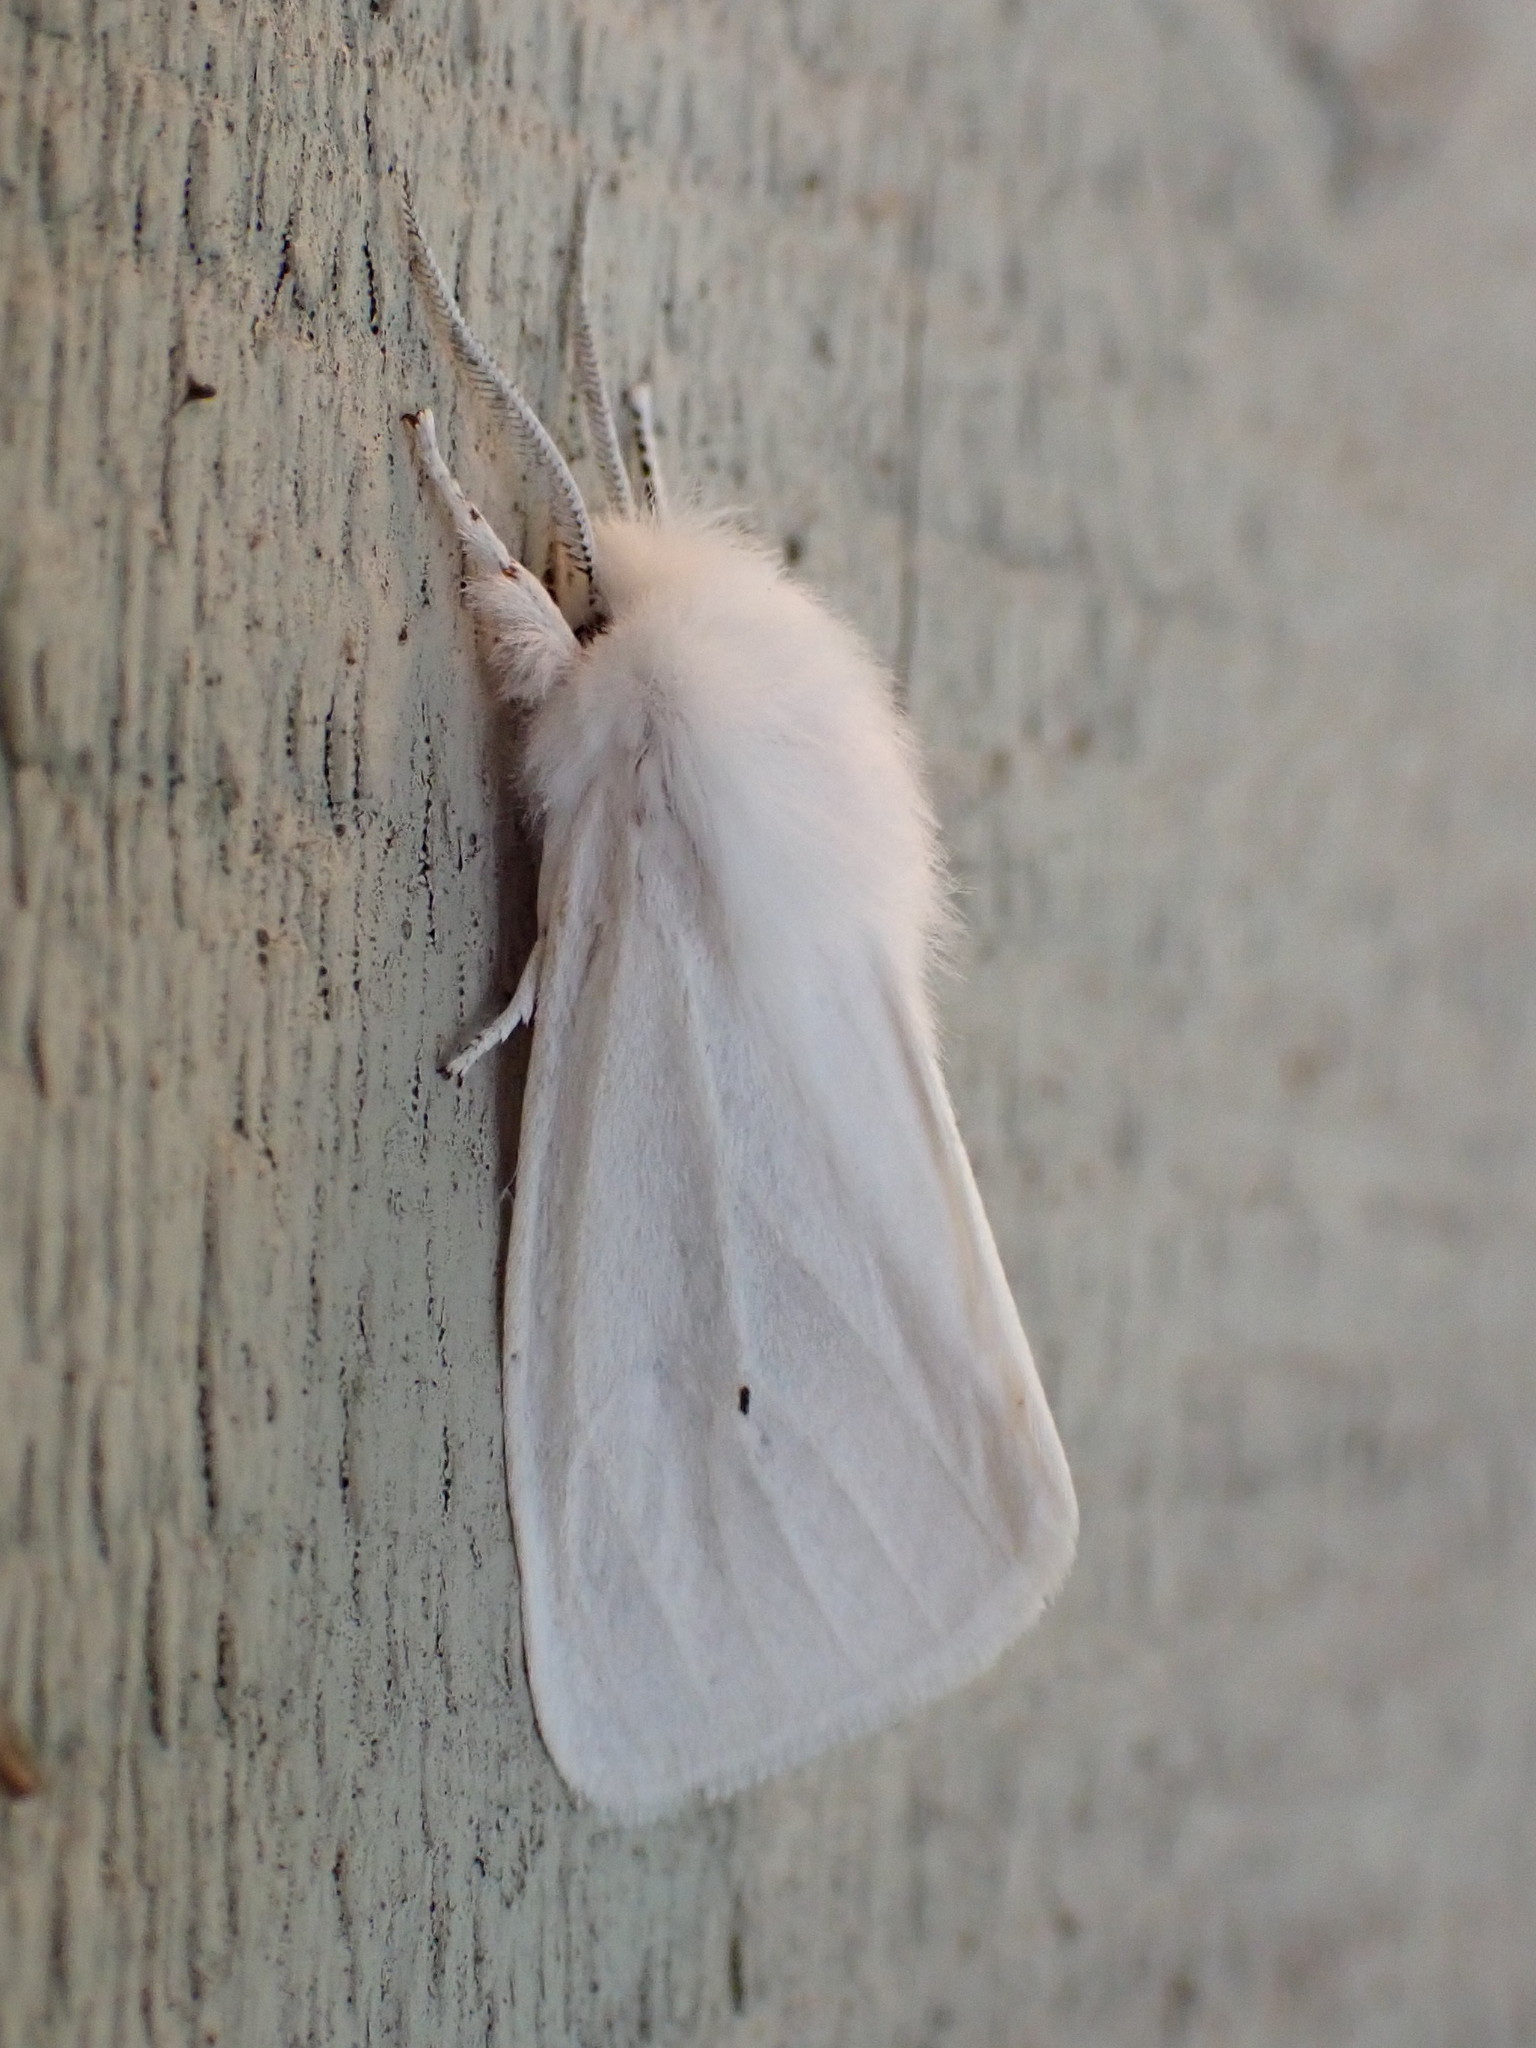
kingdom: Animalia
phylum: Arthropoda
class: Insecta
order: Lepidoptera
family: Erebidae
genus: Spilosoma
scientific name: Spilosoma virginica
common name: Virginia tiger moth
